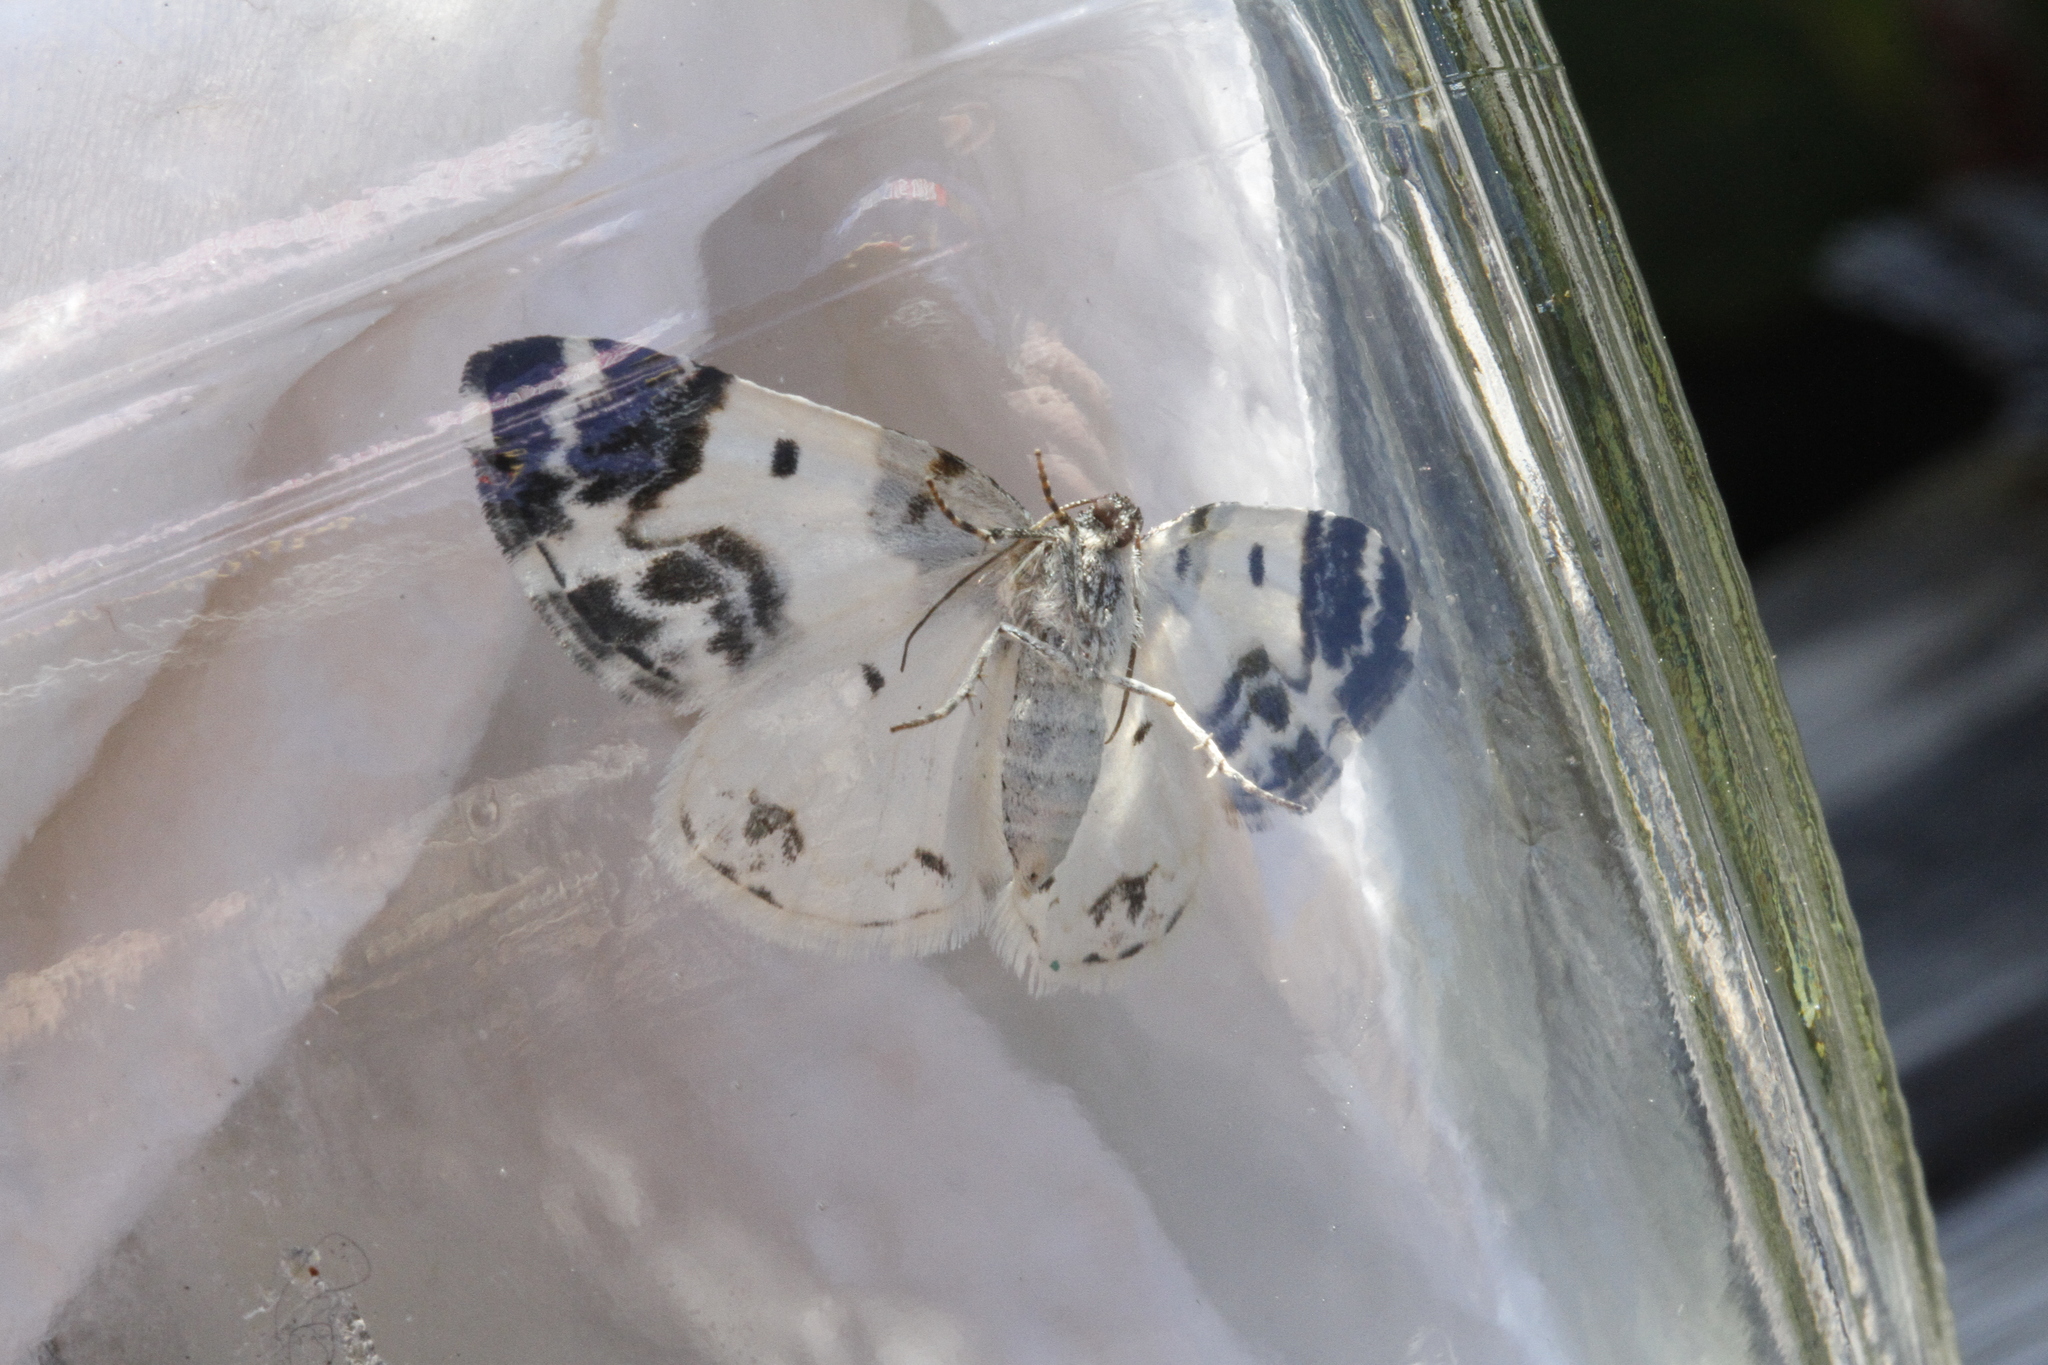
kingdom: Animalia
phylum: Arthropoda
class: Insecta
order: Lepidoptera
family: Geometridae
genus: Mesoleuca
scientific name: Mesoleuca gratulata
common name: Half-white carpet moth
